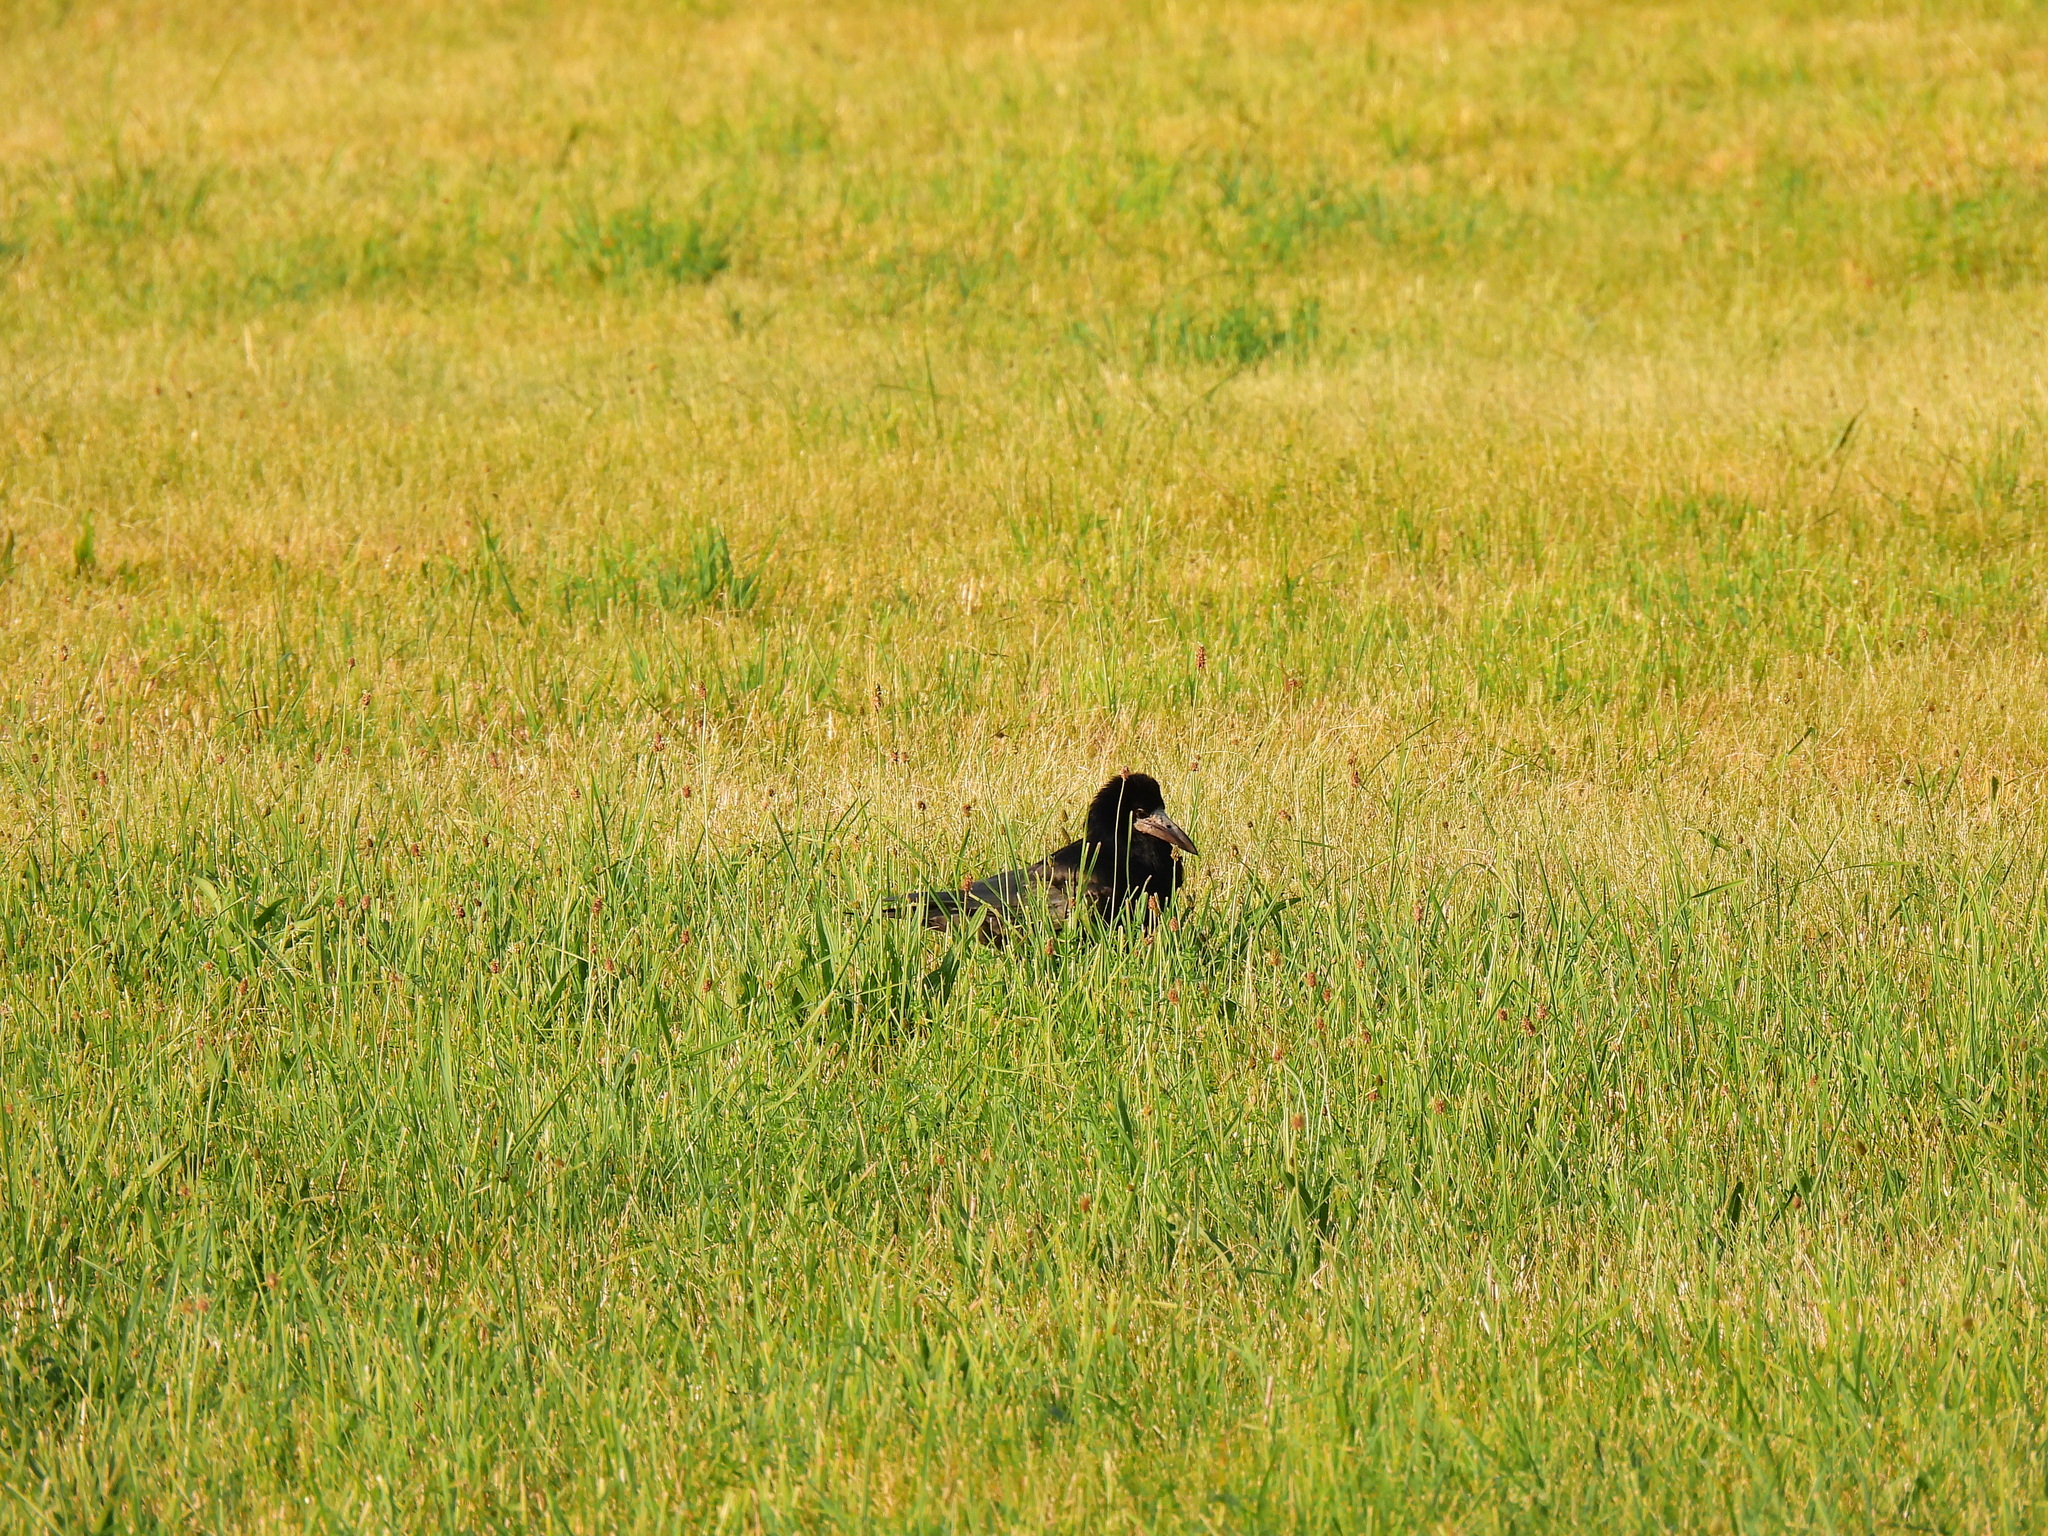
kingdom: Animalia
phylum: Chordata
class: Aves
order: Passeriformes
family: Corvidae
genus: Corvus
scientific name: Corvus frugilegus
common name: Rook
